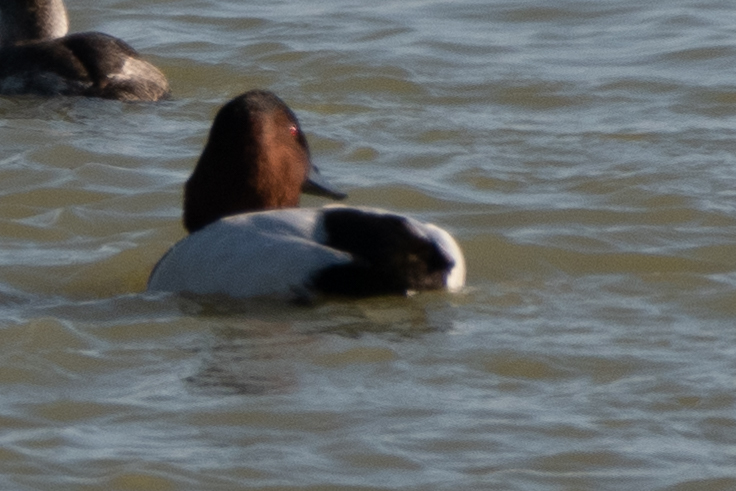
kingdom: Animalia
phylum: Chordata
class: Aves
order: Anseriformes
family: Anatidae
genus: Aythya
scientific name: Aythya valisineria
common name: Canvasback
